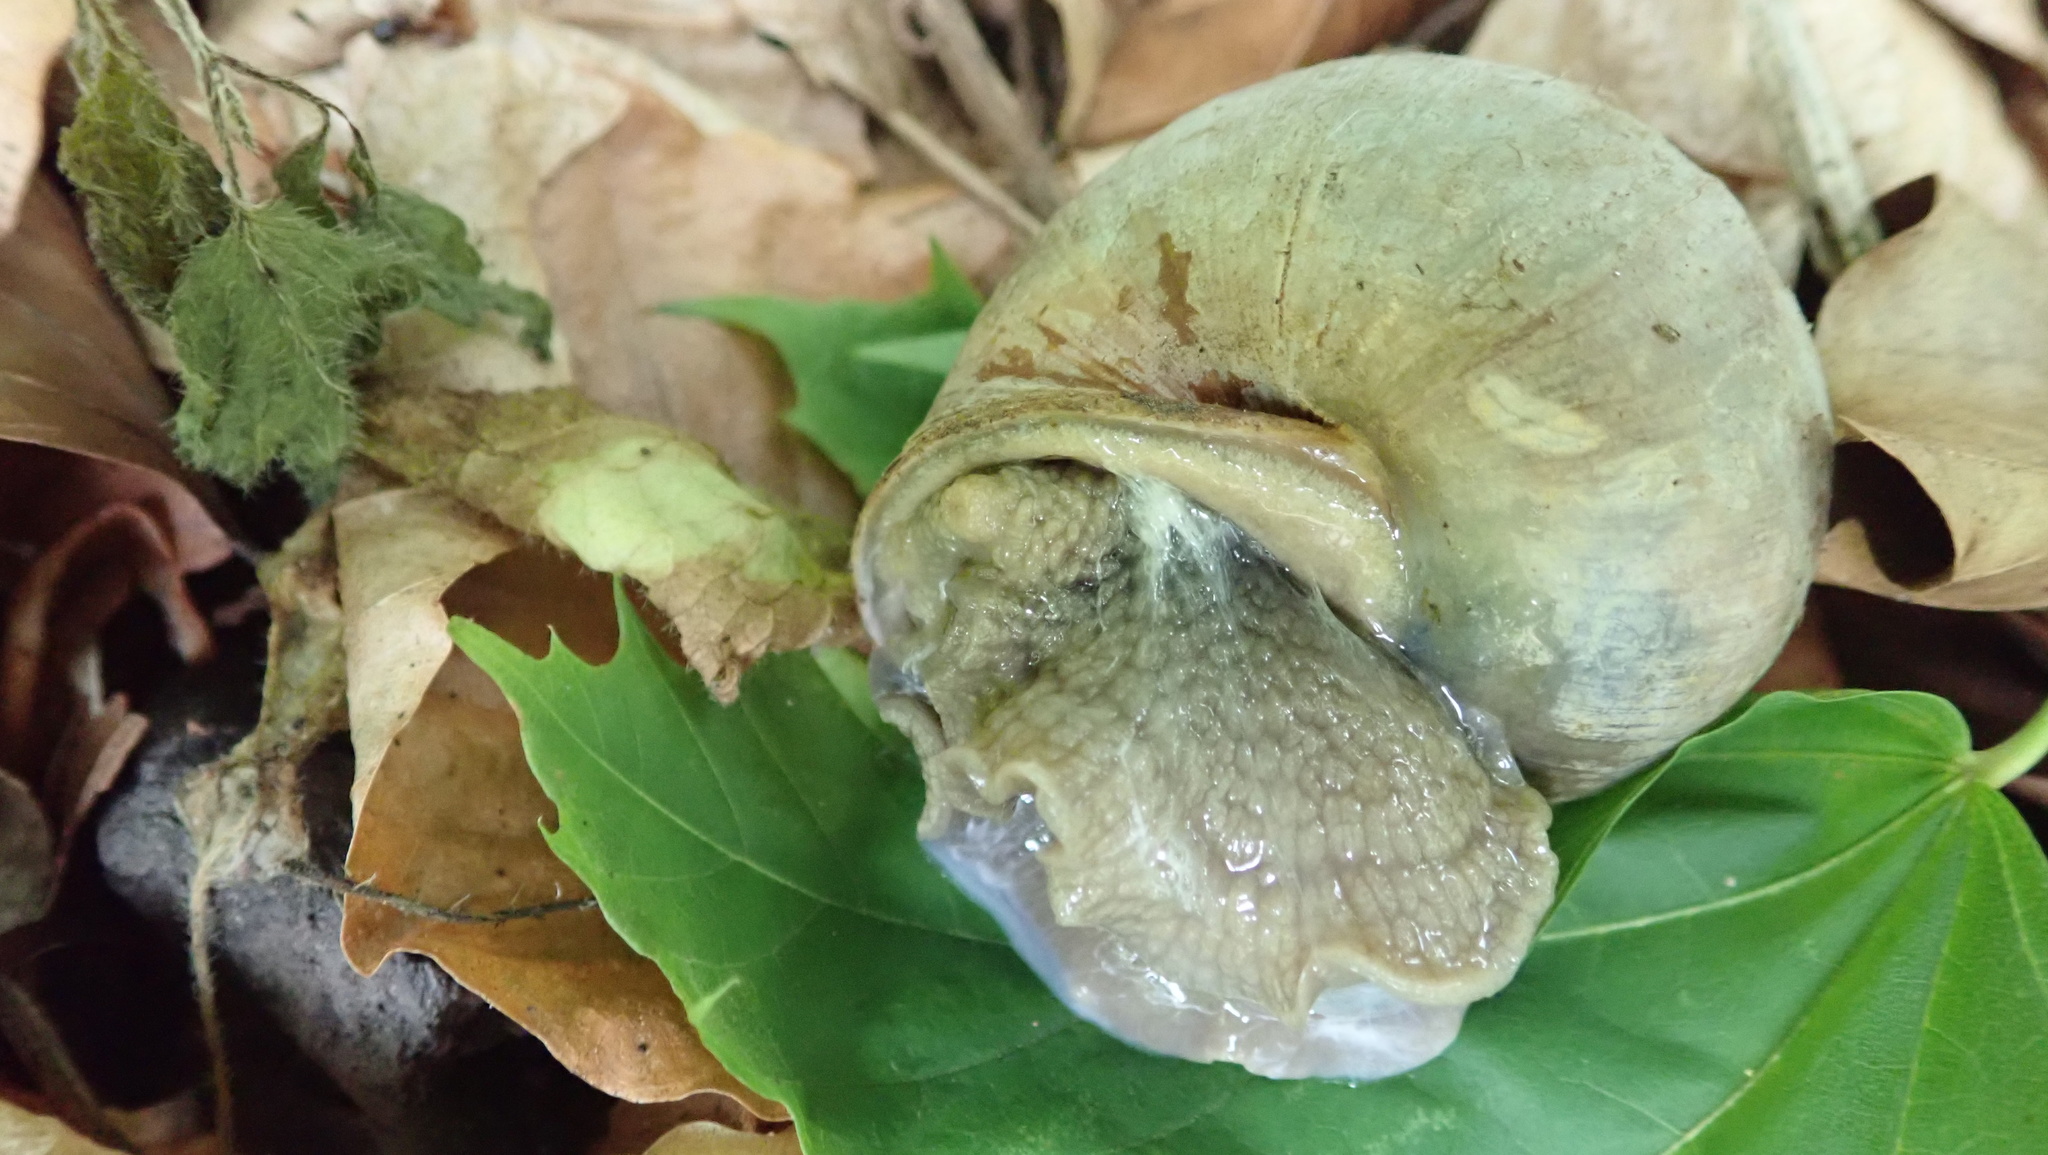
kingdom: Animalia
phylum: Mollusca
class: Gastropoda
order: Stylommatophora
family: Helicidae
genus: Helix
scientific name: Helix pomatia
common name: Roman snail
